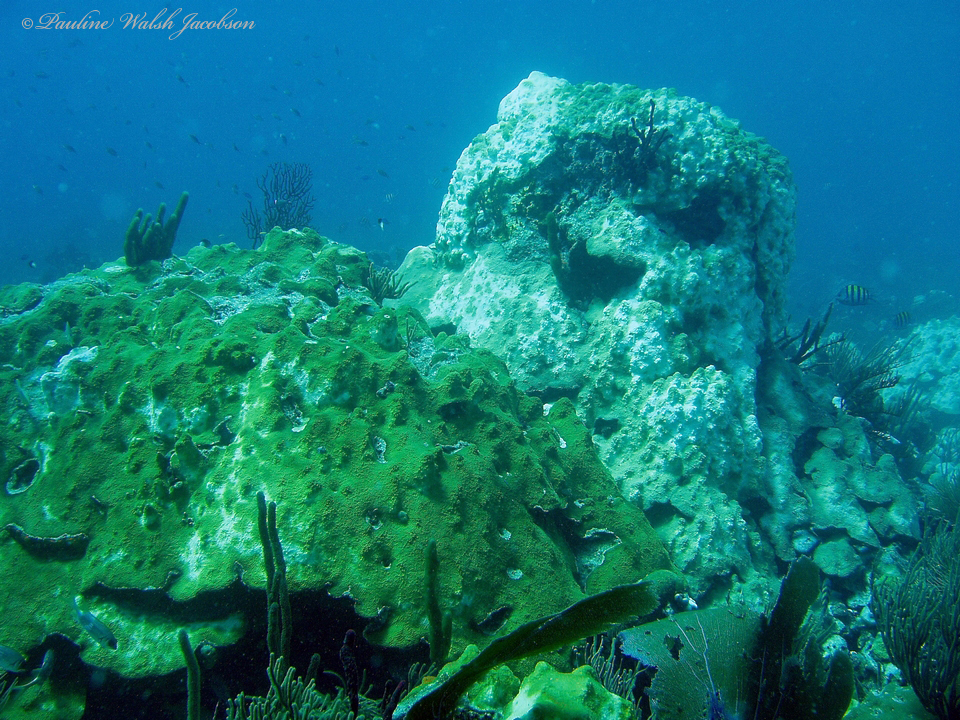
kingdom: Animalia
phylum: Cnidaria
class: Anthozoa
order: Scleractinia
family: Merulinidae
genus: Orbicella
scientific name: Orbicella faveolata
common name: Mountainous star coral
